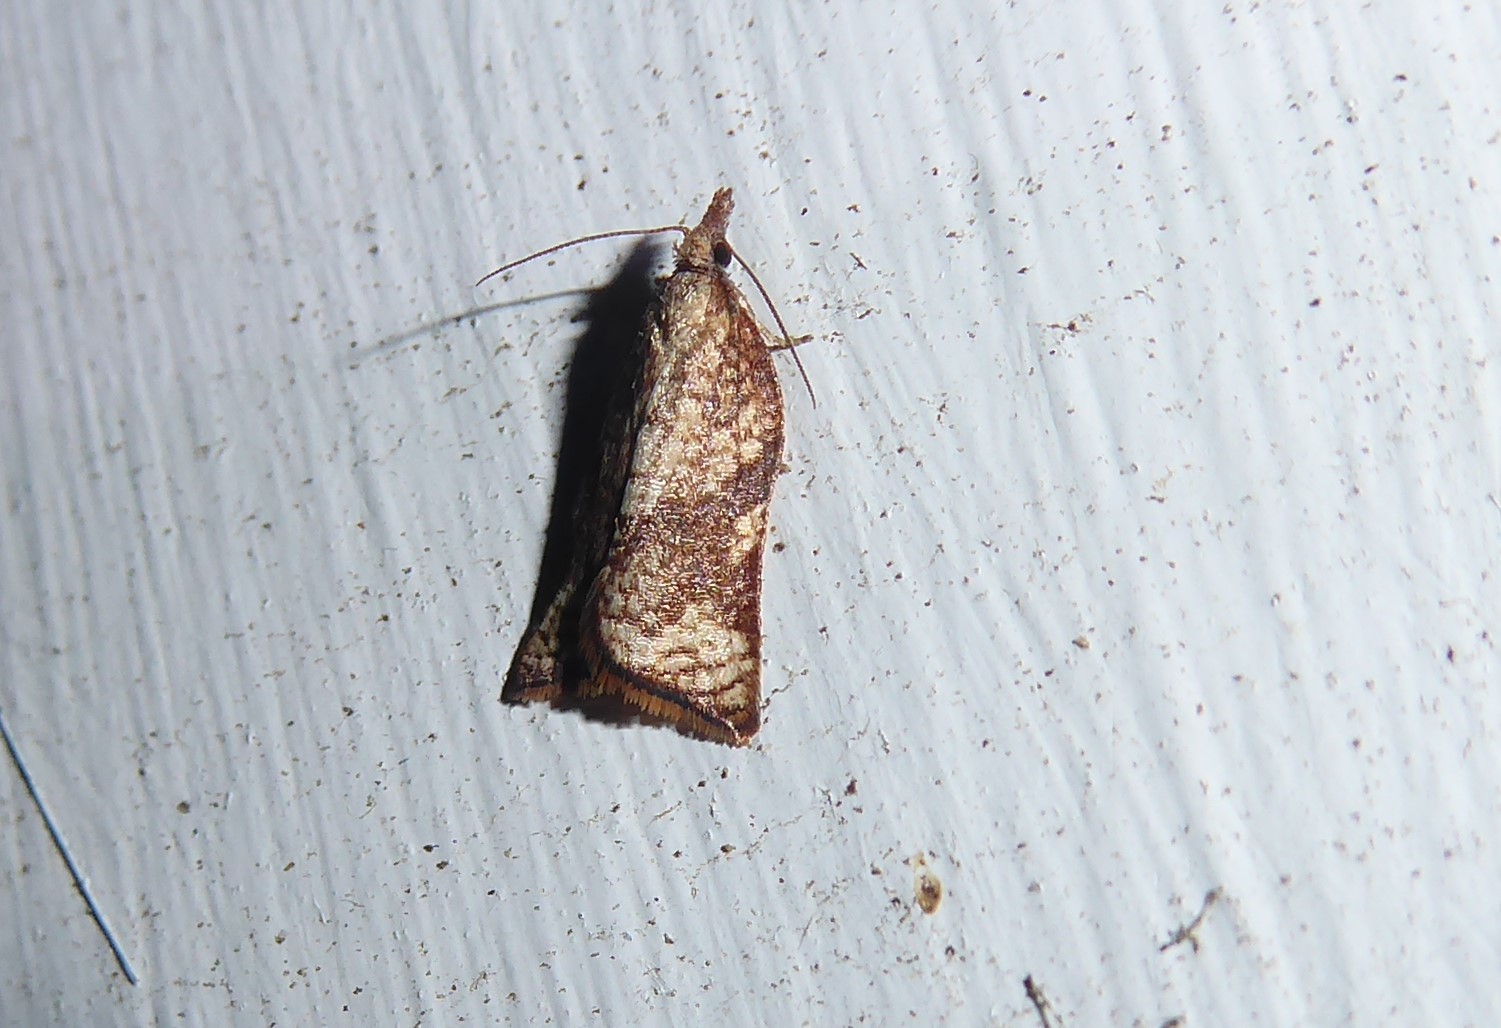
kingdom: Animalia
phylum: Arthropoda
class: Insecta
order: Lepidoptera
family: Tortricidae
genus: Catamacta
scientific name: Catamacta gavisana
